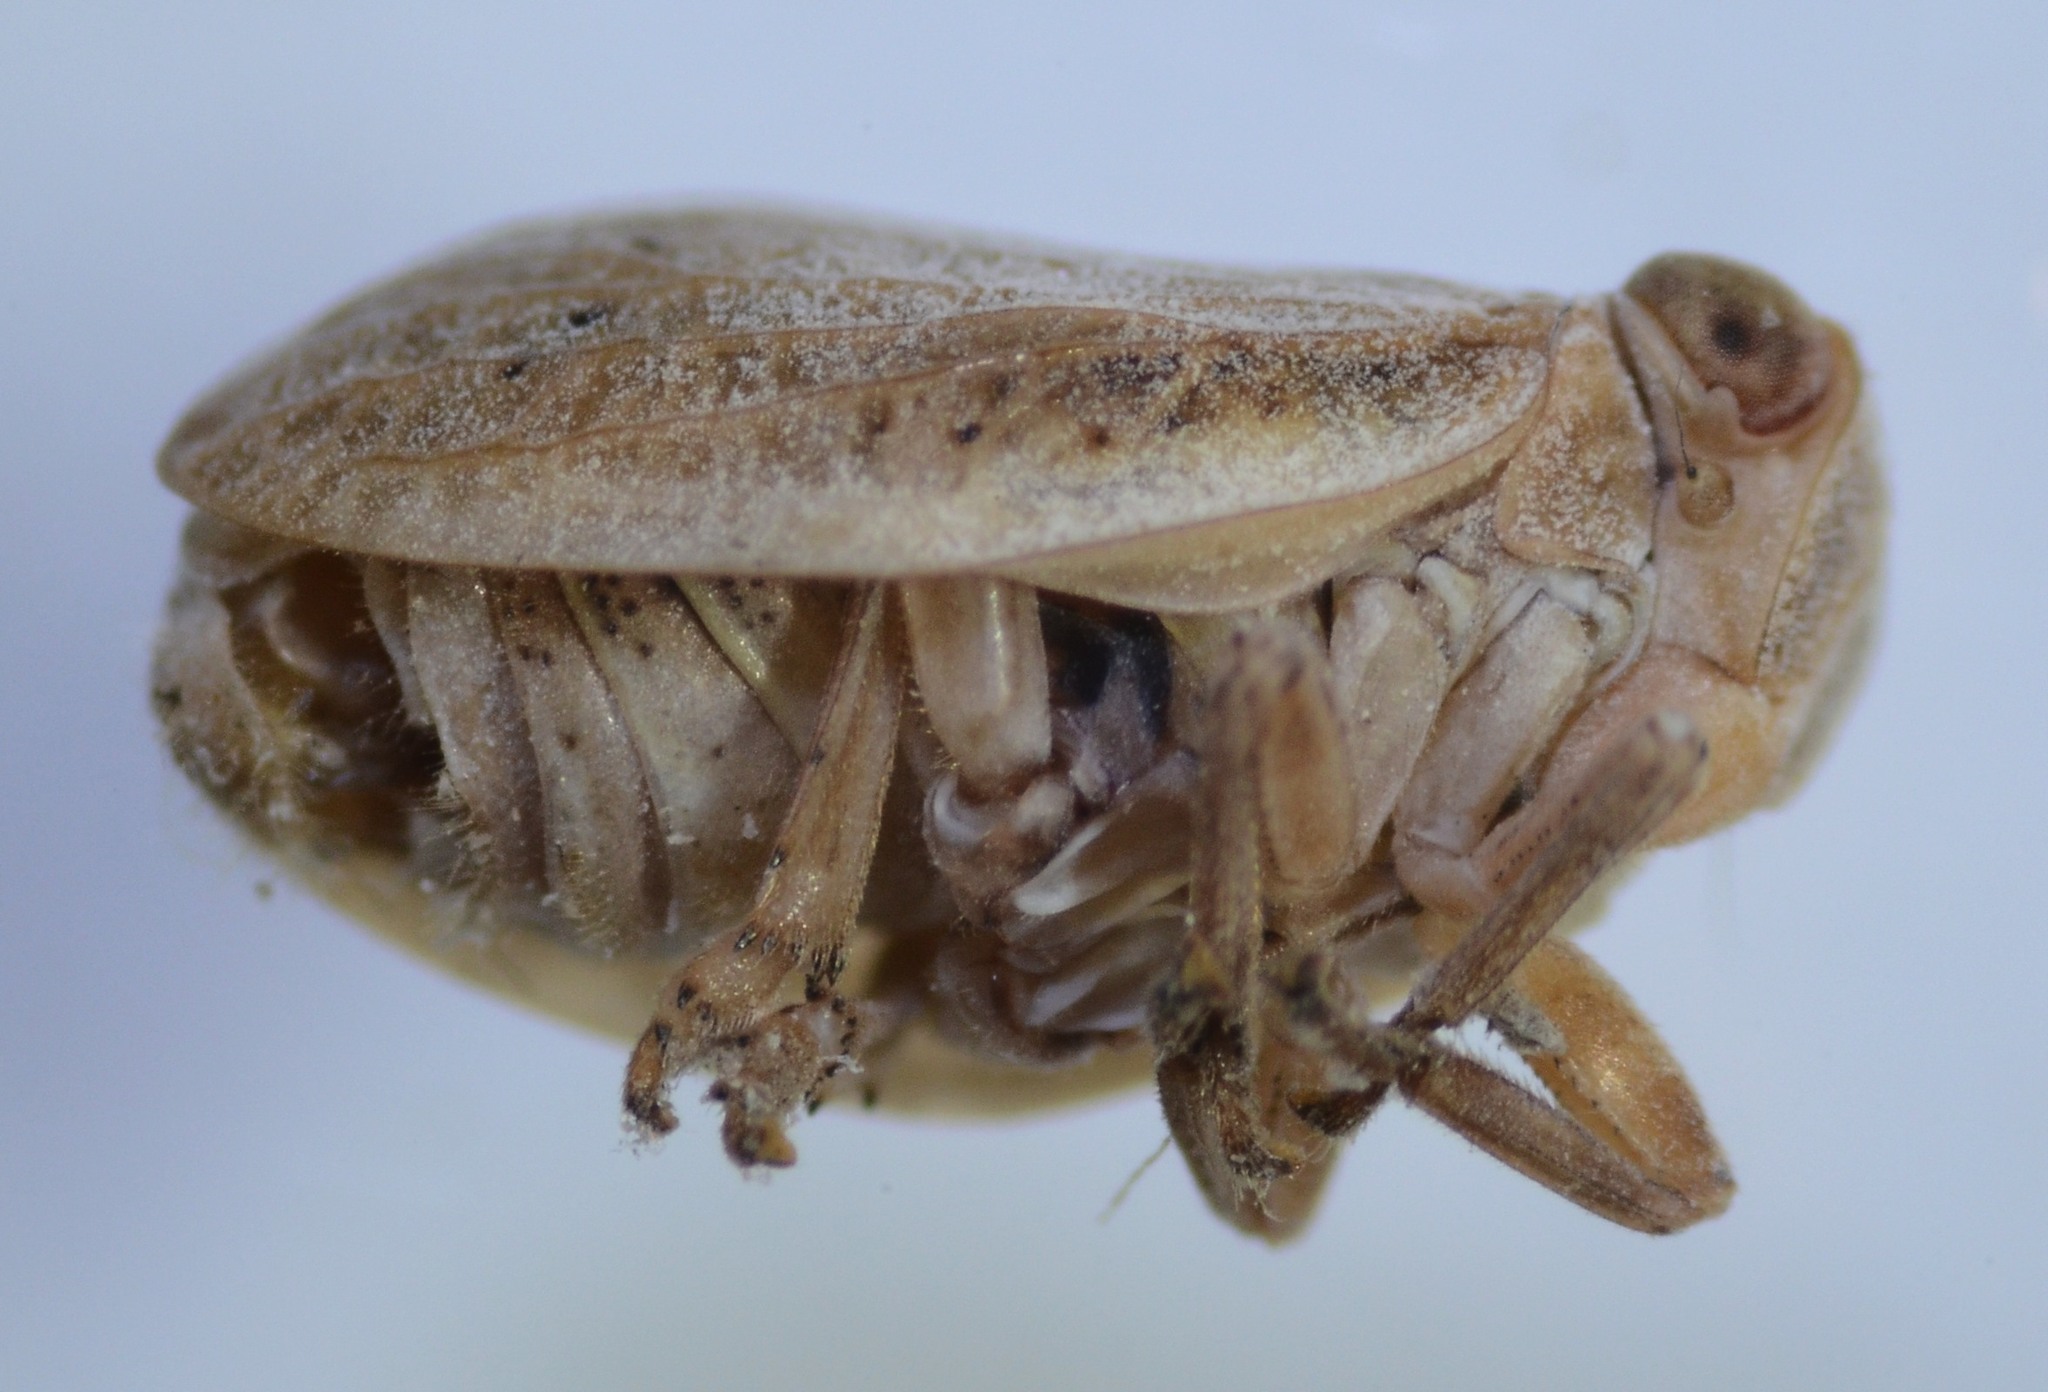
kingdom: Animalia
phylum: Arthropoda
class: Insecta
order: Hemiptera
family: Issidae
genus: Agalmatium
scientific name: Agalmatium bilobum
